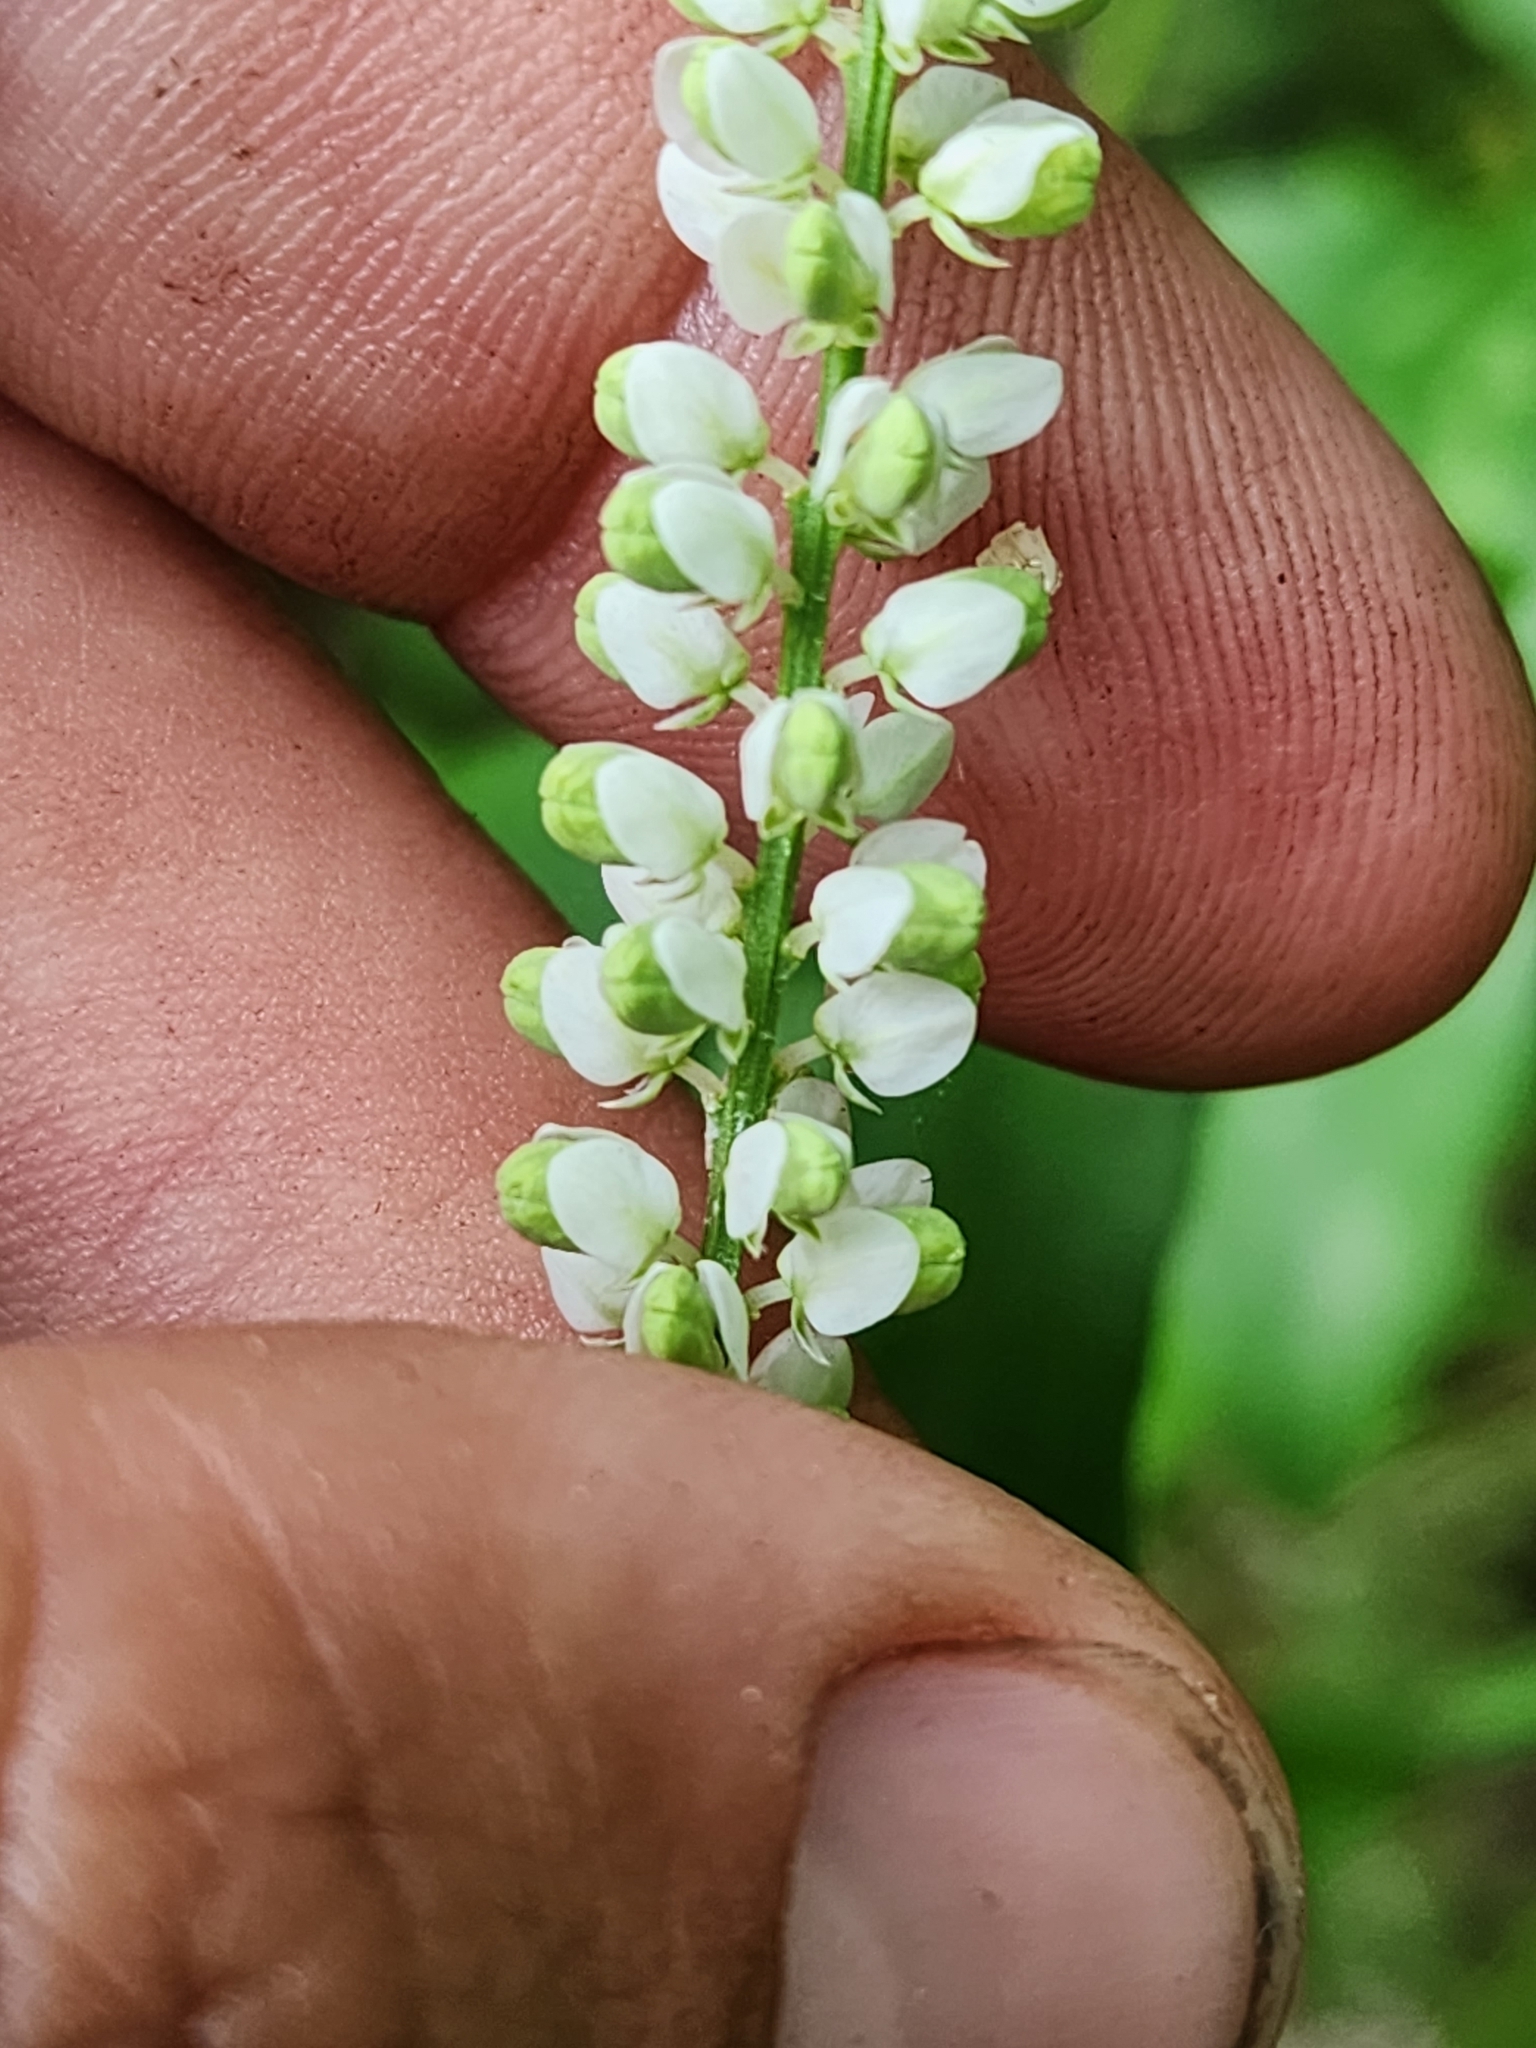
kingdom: Plantae
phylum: Tracheophyta
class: Magnoliopsida
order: Fabales
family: Polygalaceae
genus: Polygala
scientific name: Polygala boykinii
